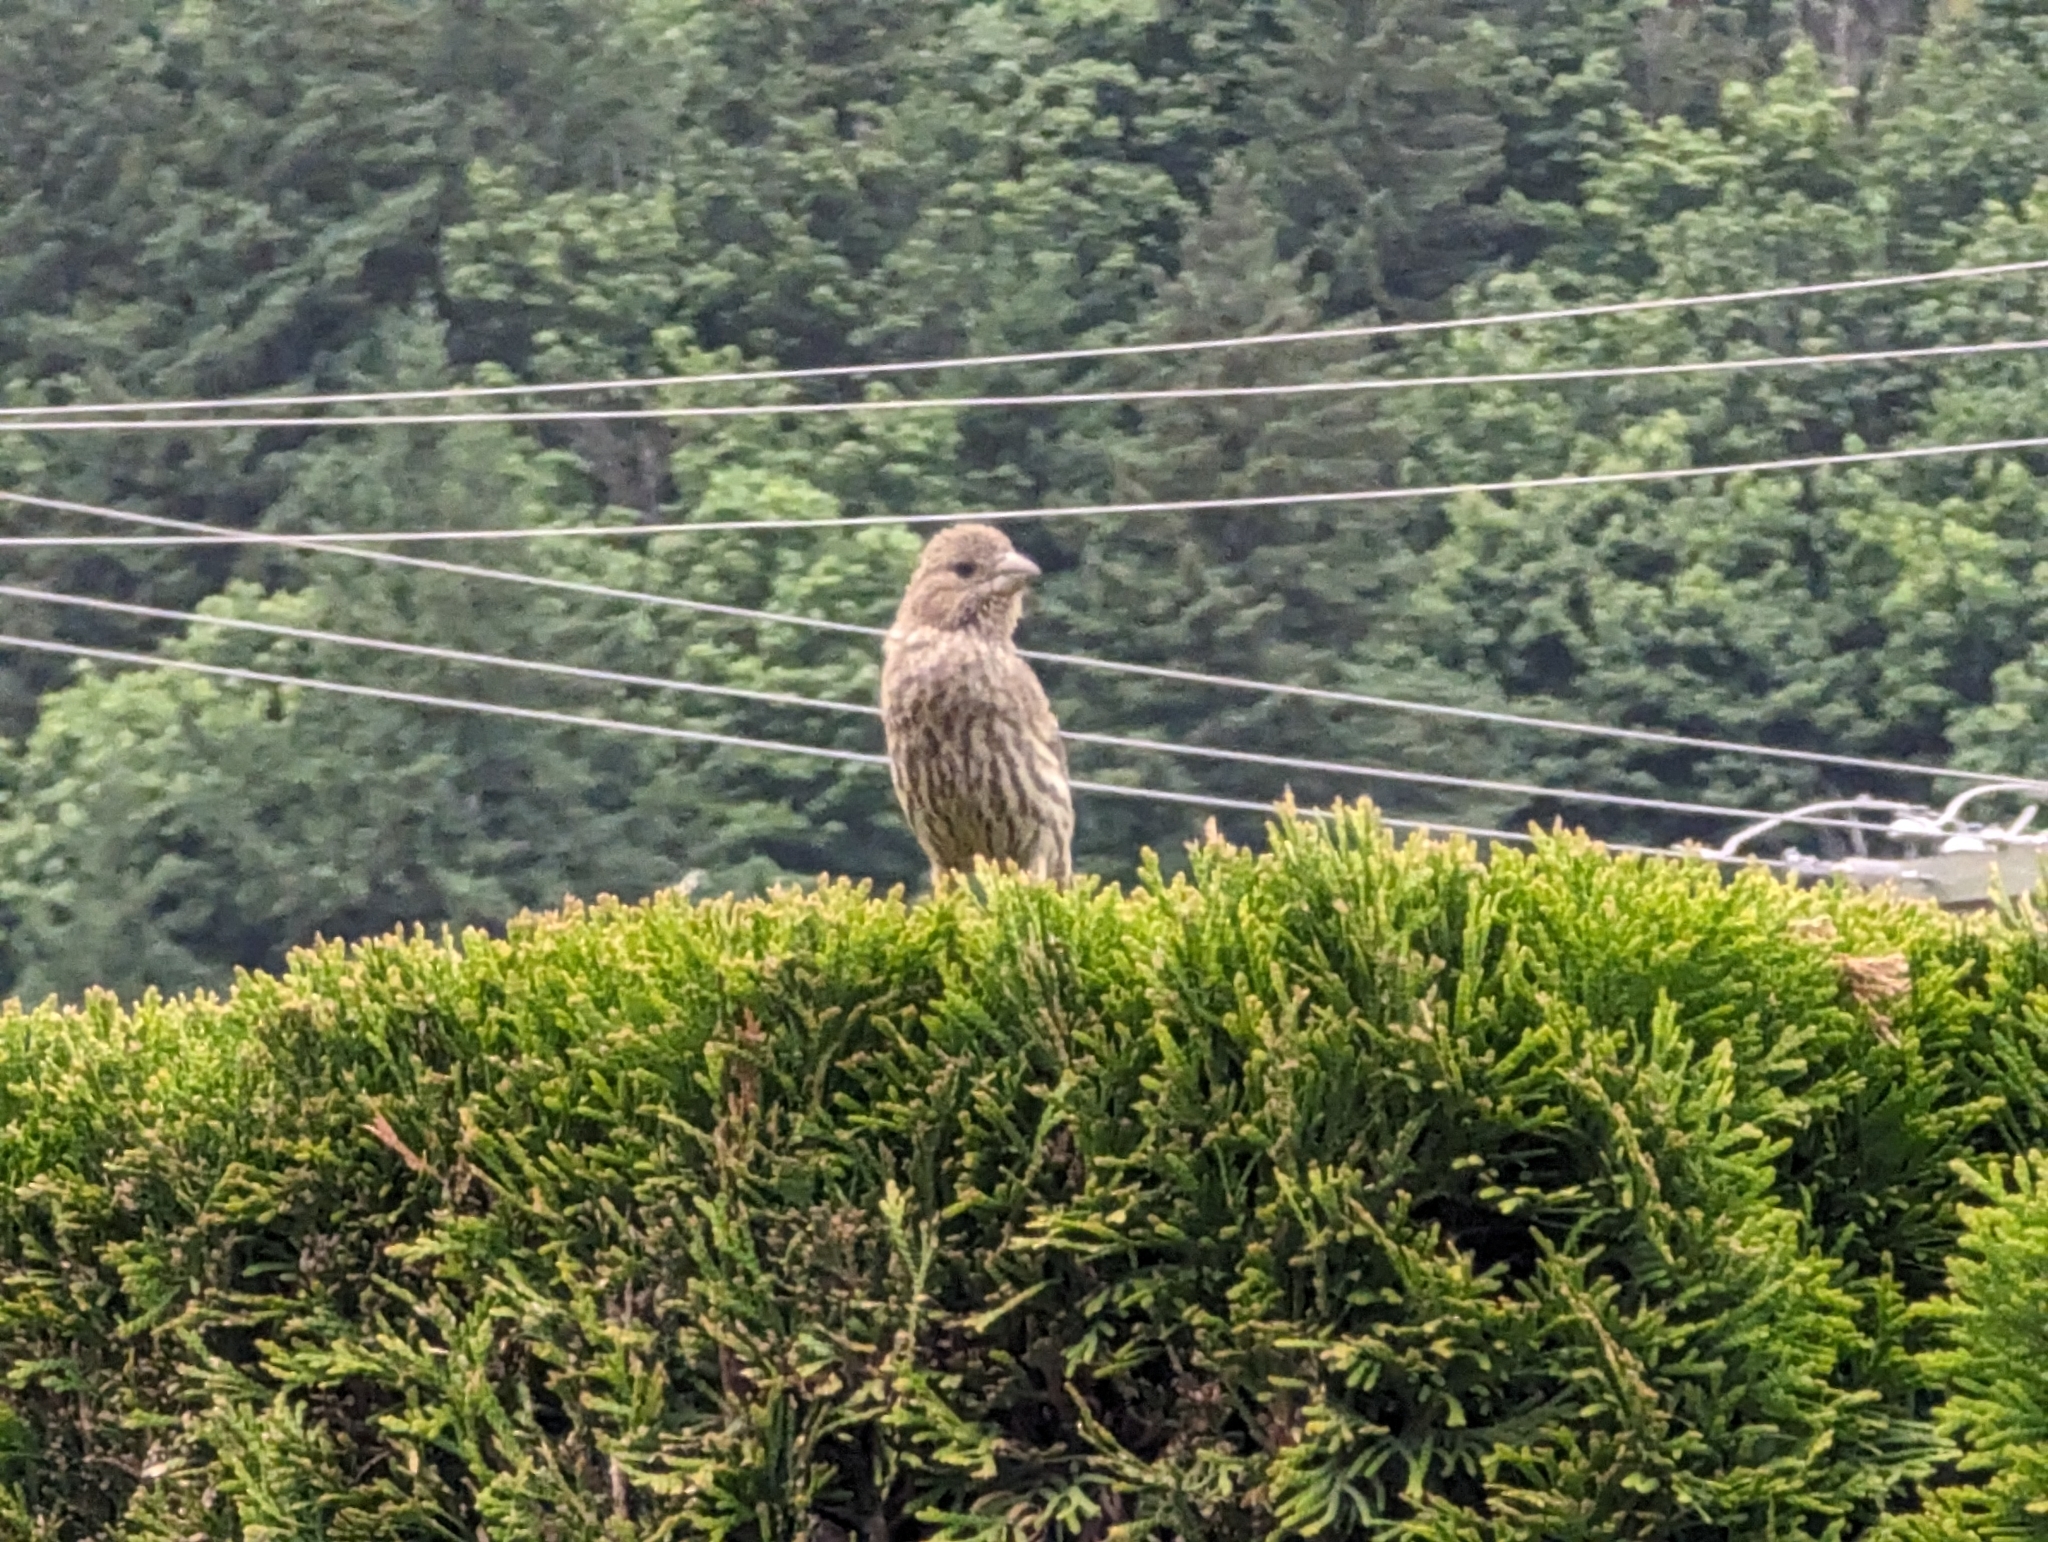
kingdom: Animalia
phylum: Chordata
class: Aves
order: Passeriformes
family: Fringillidae
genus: Haemorhous
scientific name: Haemorhous mexicanus
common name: House finch
